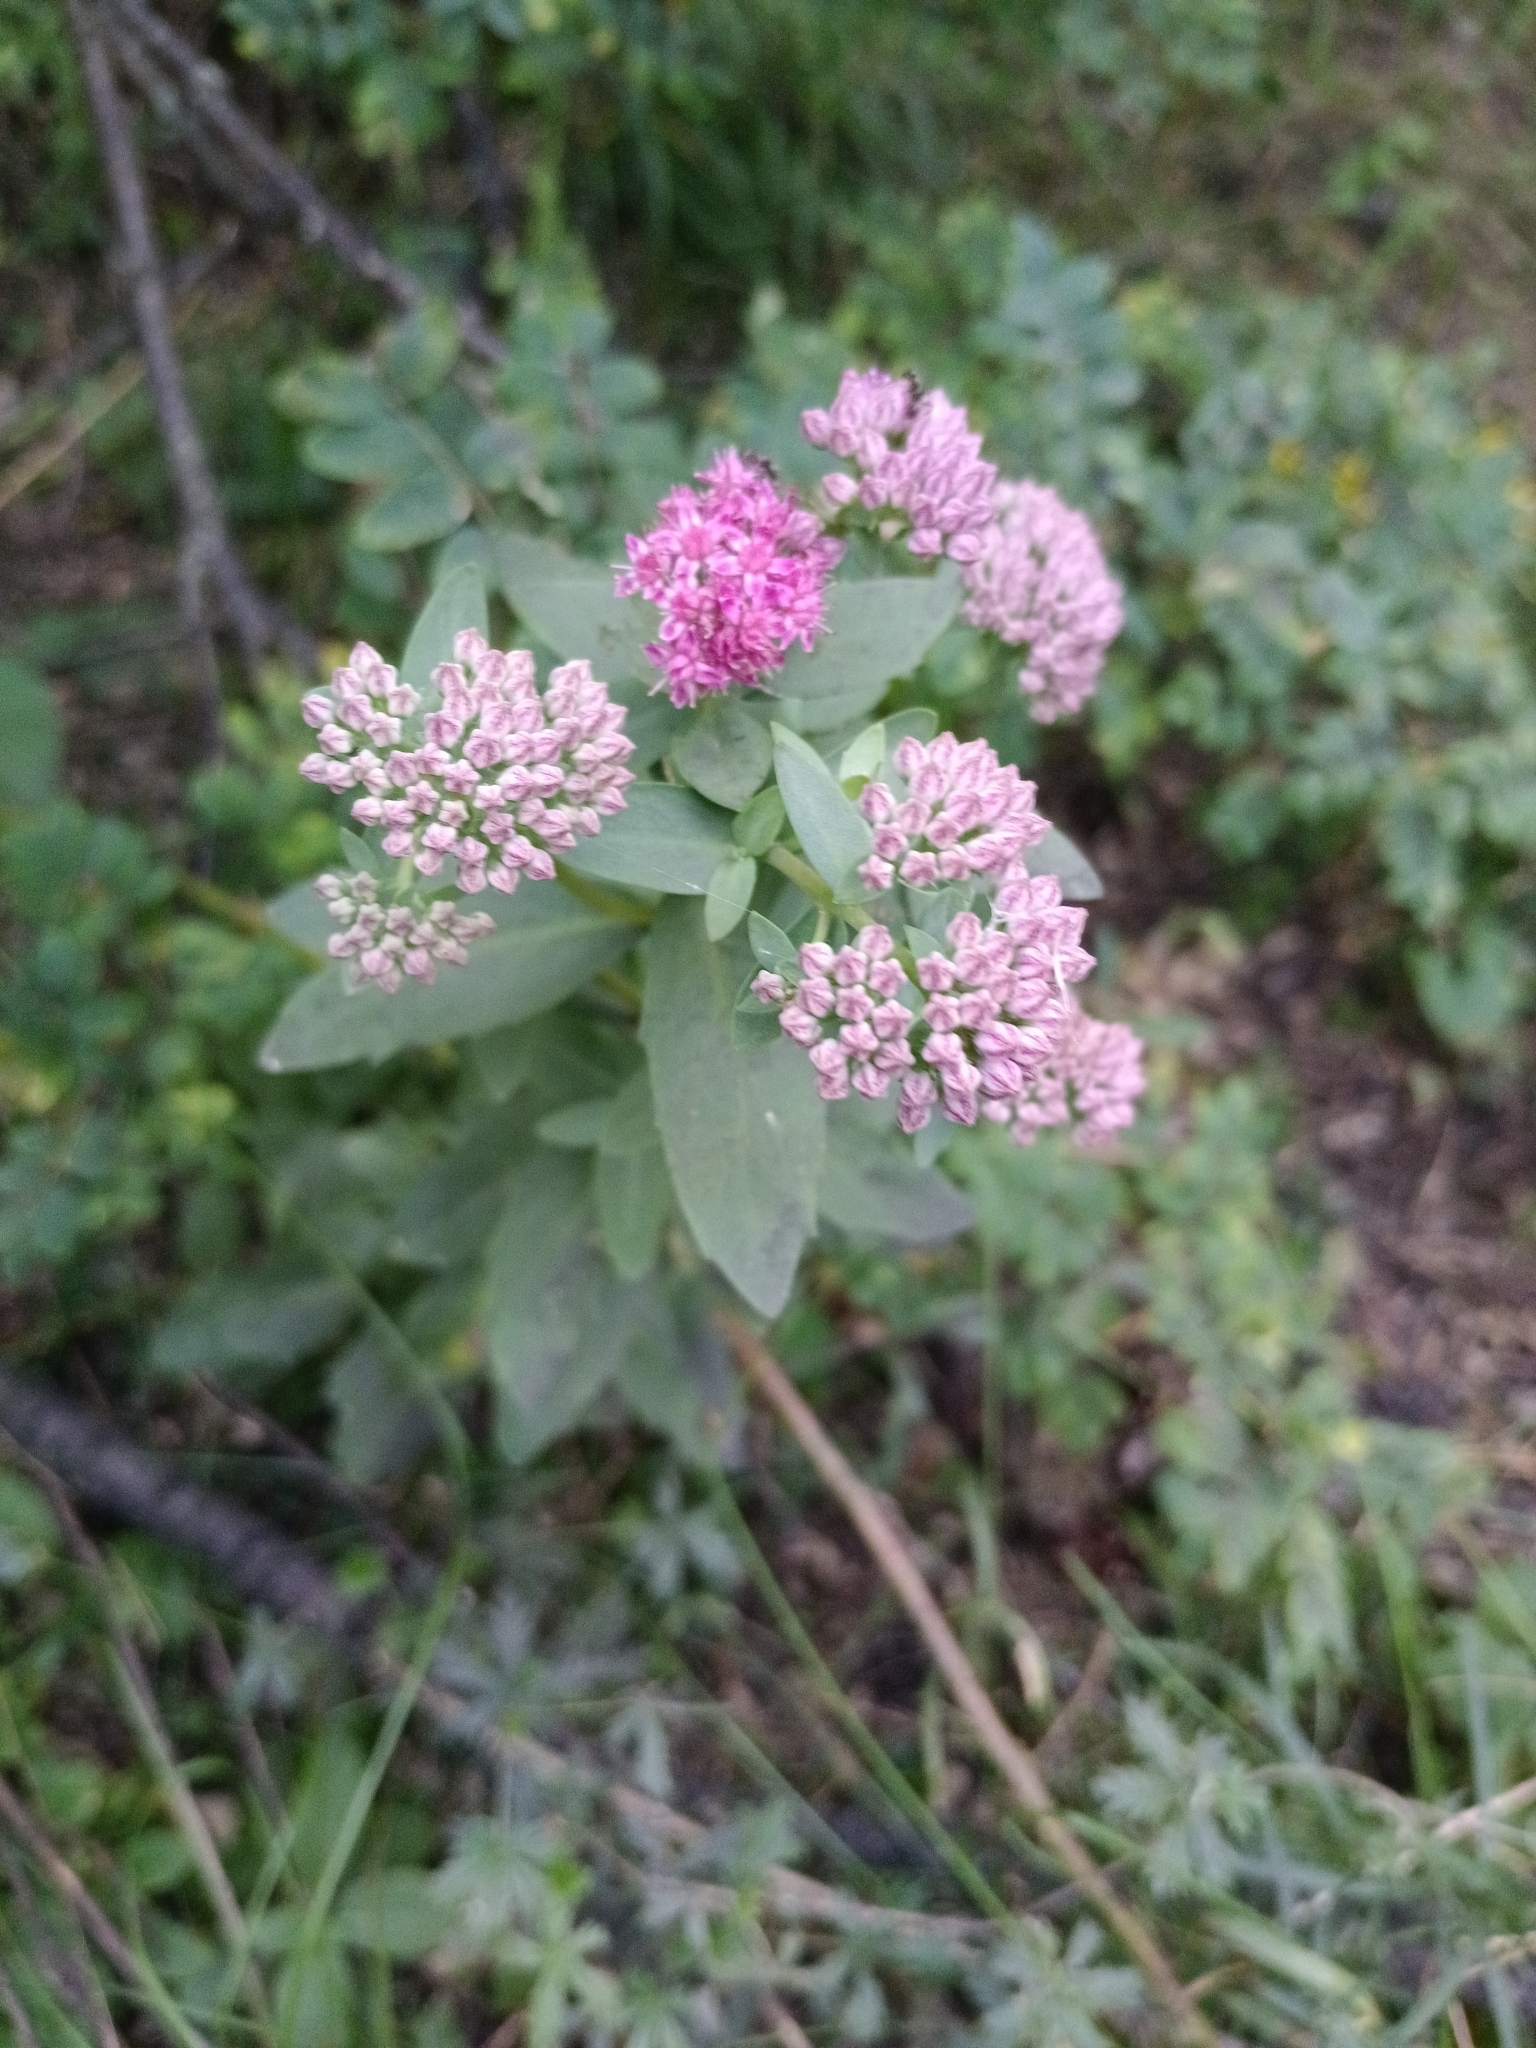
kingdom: Plantae
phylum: Tracheophyta
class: Magnoliopsida
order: Saxifragales
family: Crassulaceae
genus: Hylotelephium
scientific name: Hylotelephium telephium
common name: Live-forever
